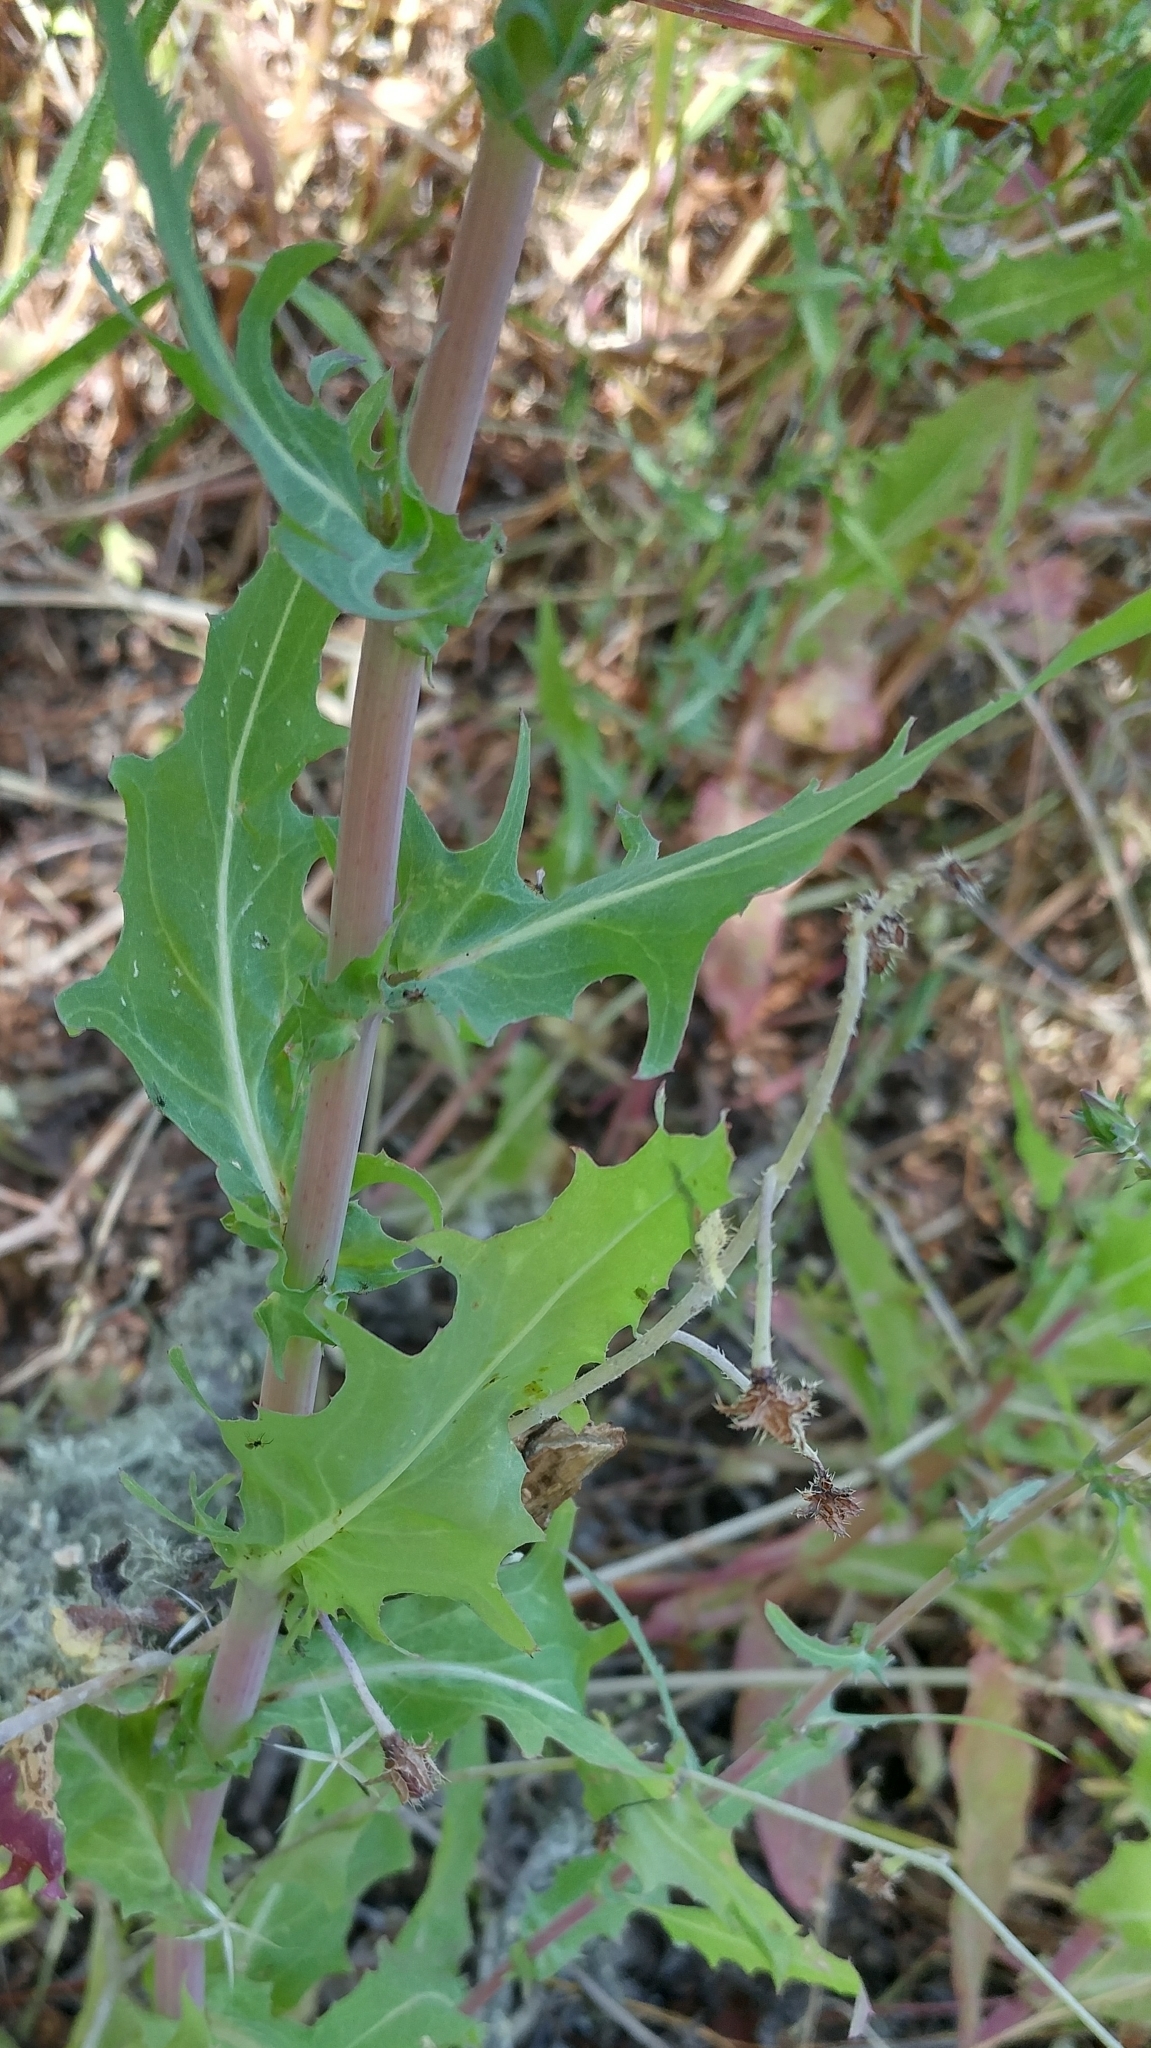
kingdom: Plantae
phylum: Tracheophyta
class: Magnoliopsida
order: Asterales
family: Asteraceae
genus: Rafinesquia
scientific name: Rafinesquia californica
